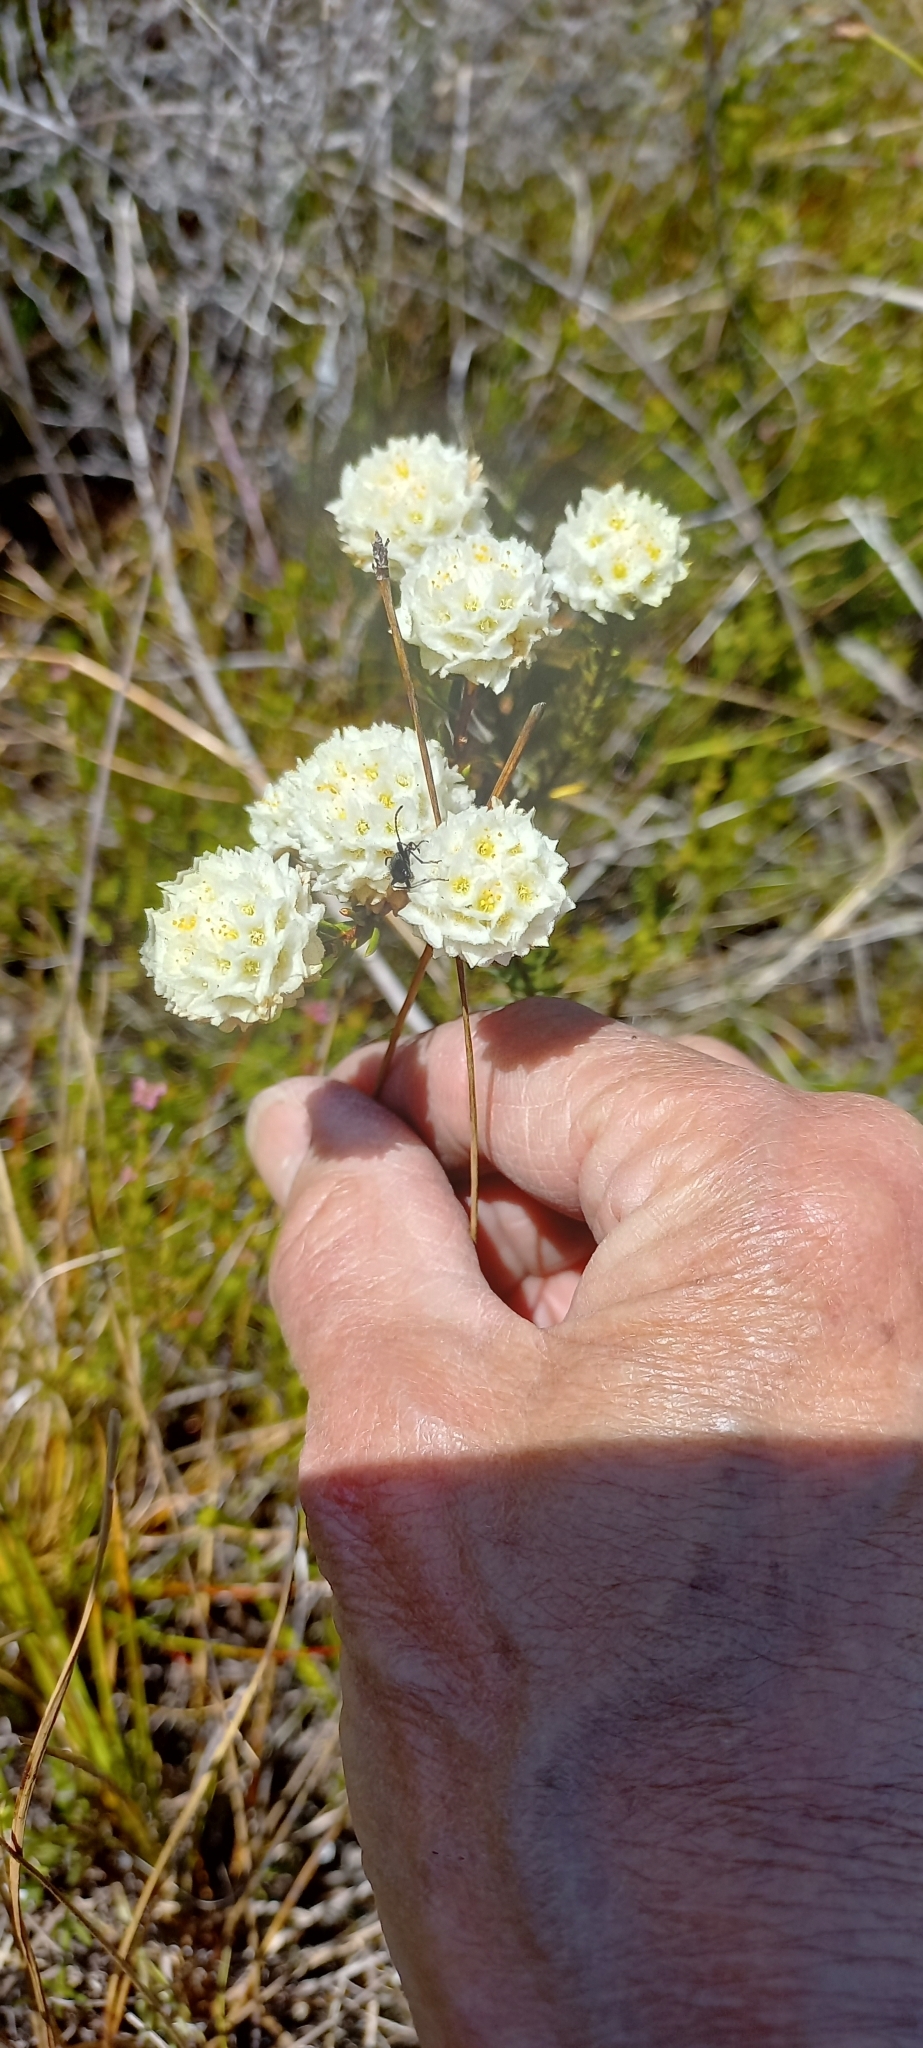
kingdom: Plantae
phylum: Tracheophyta
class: Magnoliopsida
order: Malvales
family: Thymelaeaceae
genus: Lachnaea
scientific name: Lachnaea densiflora
